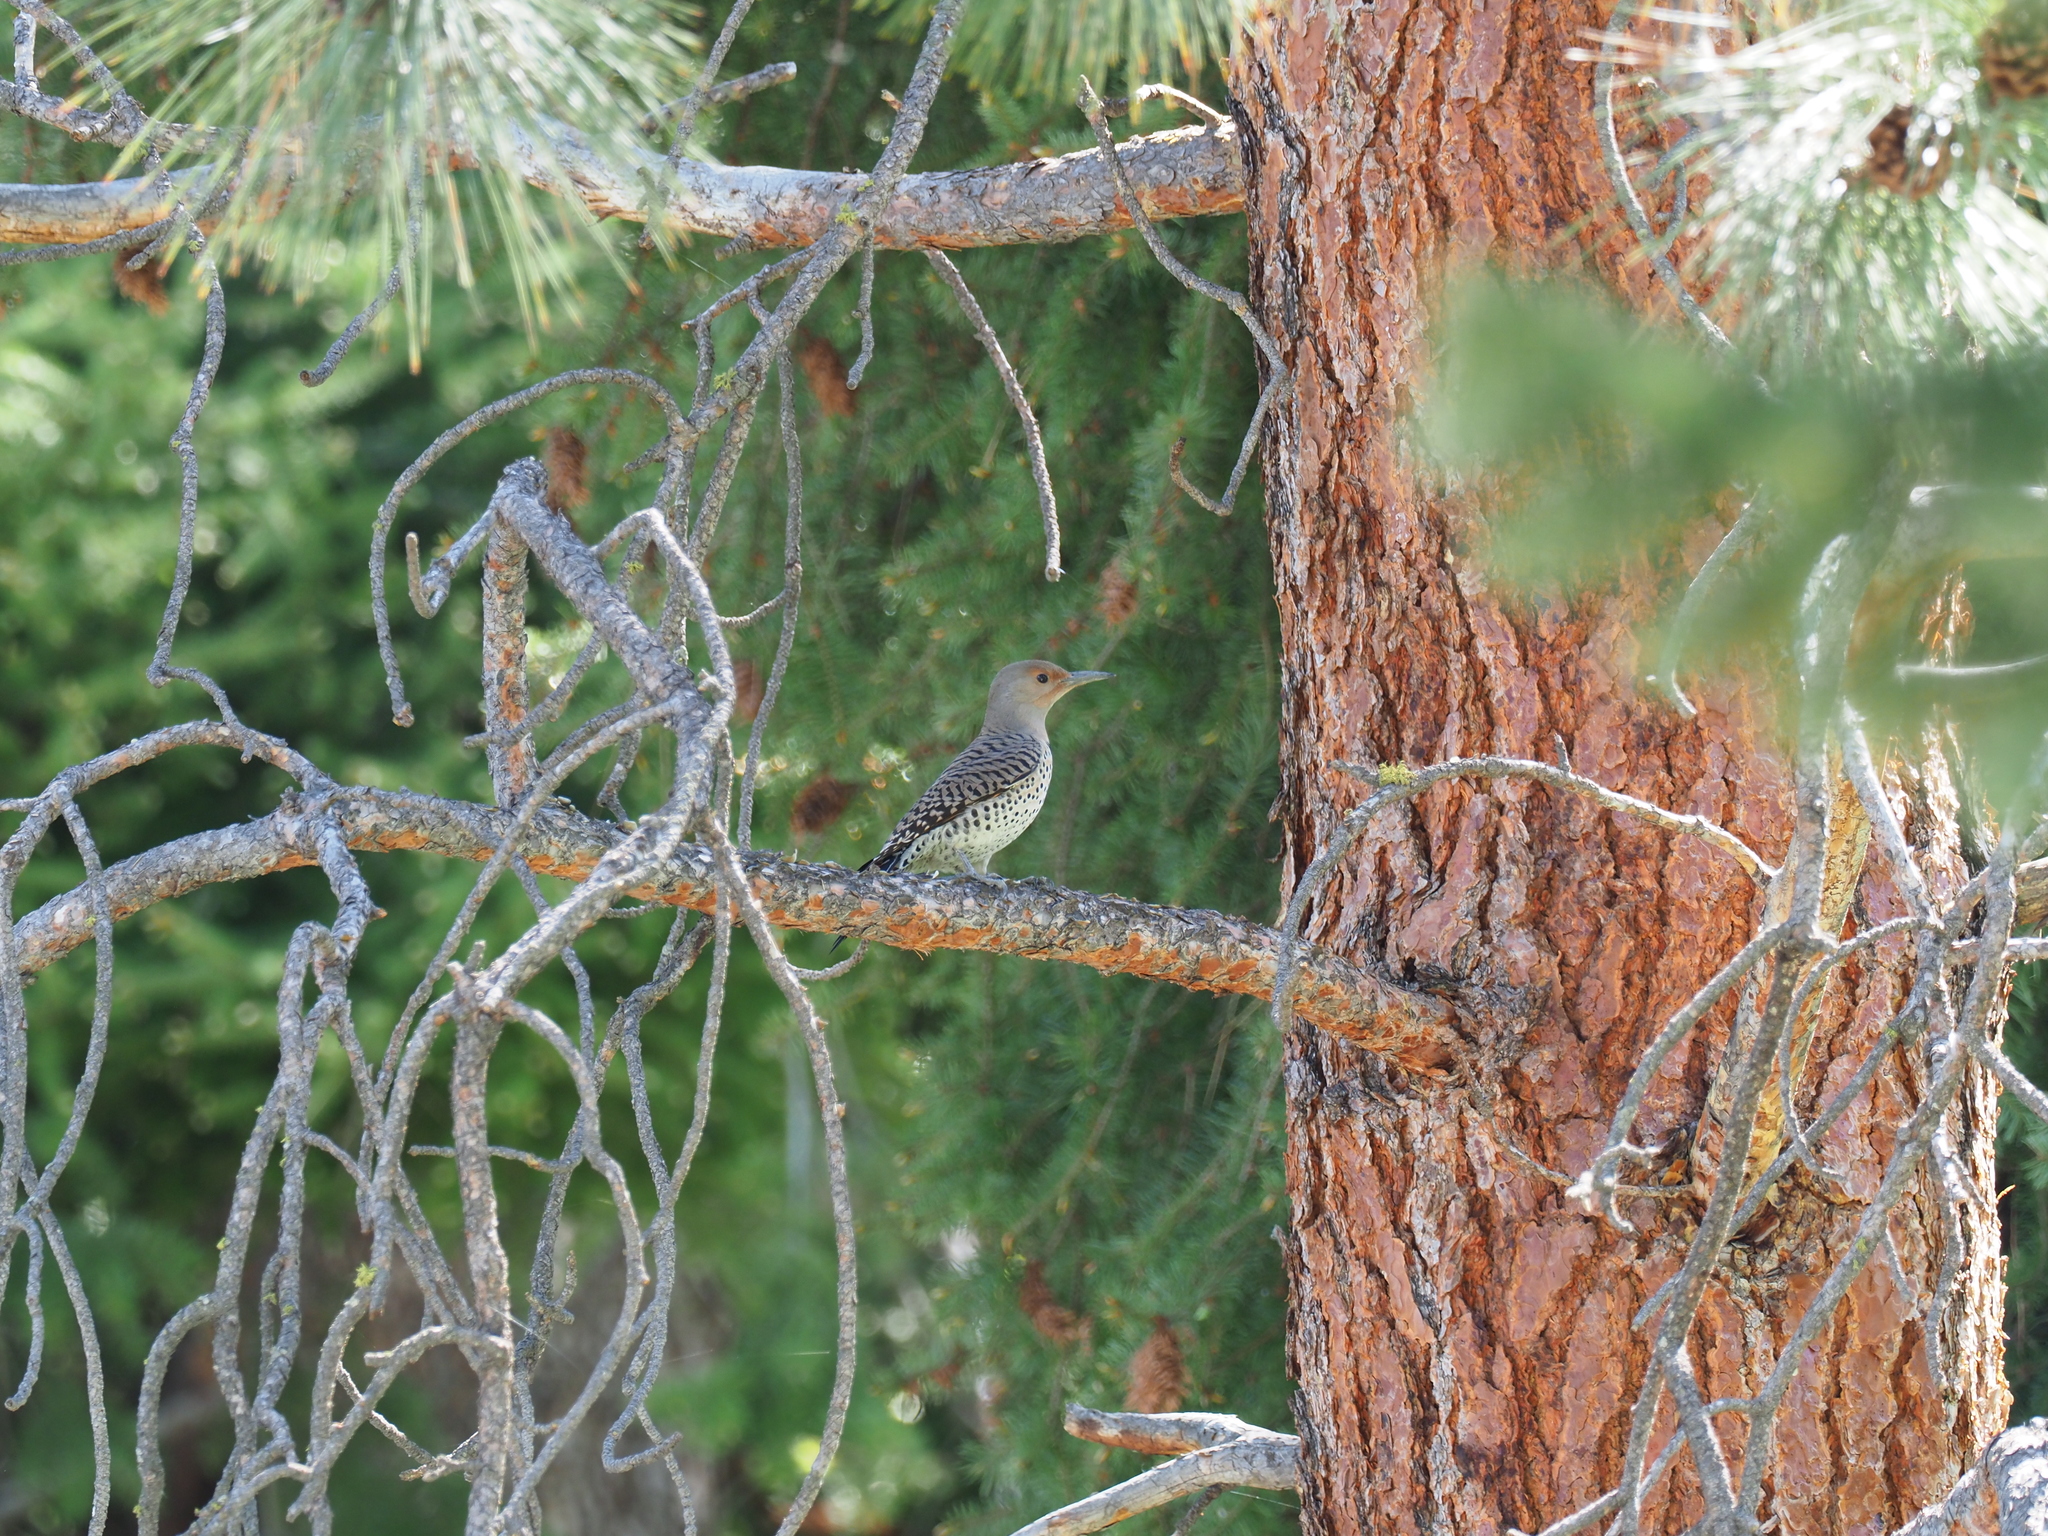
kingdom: Animalia
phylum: Chordata
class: Aves
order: Piciformes
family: Picidae
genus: Colaptes
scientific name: Colaptes auratus
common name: Northern flicker
